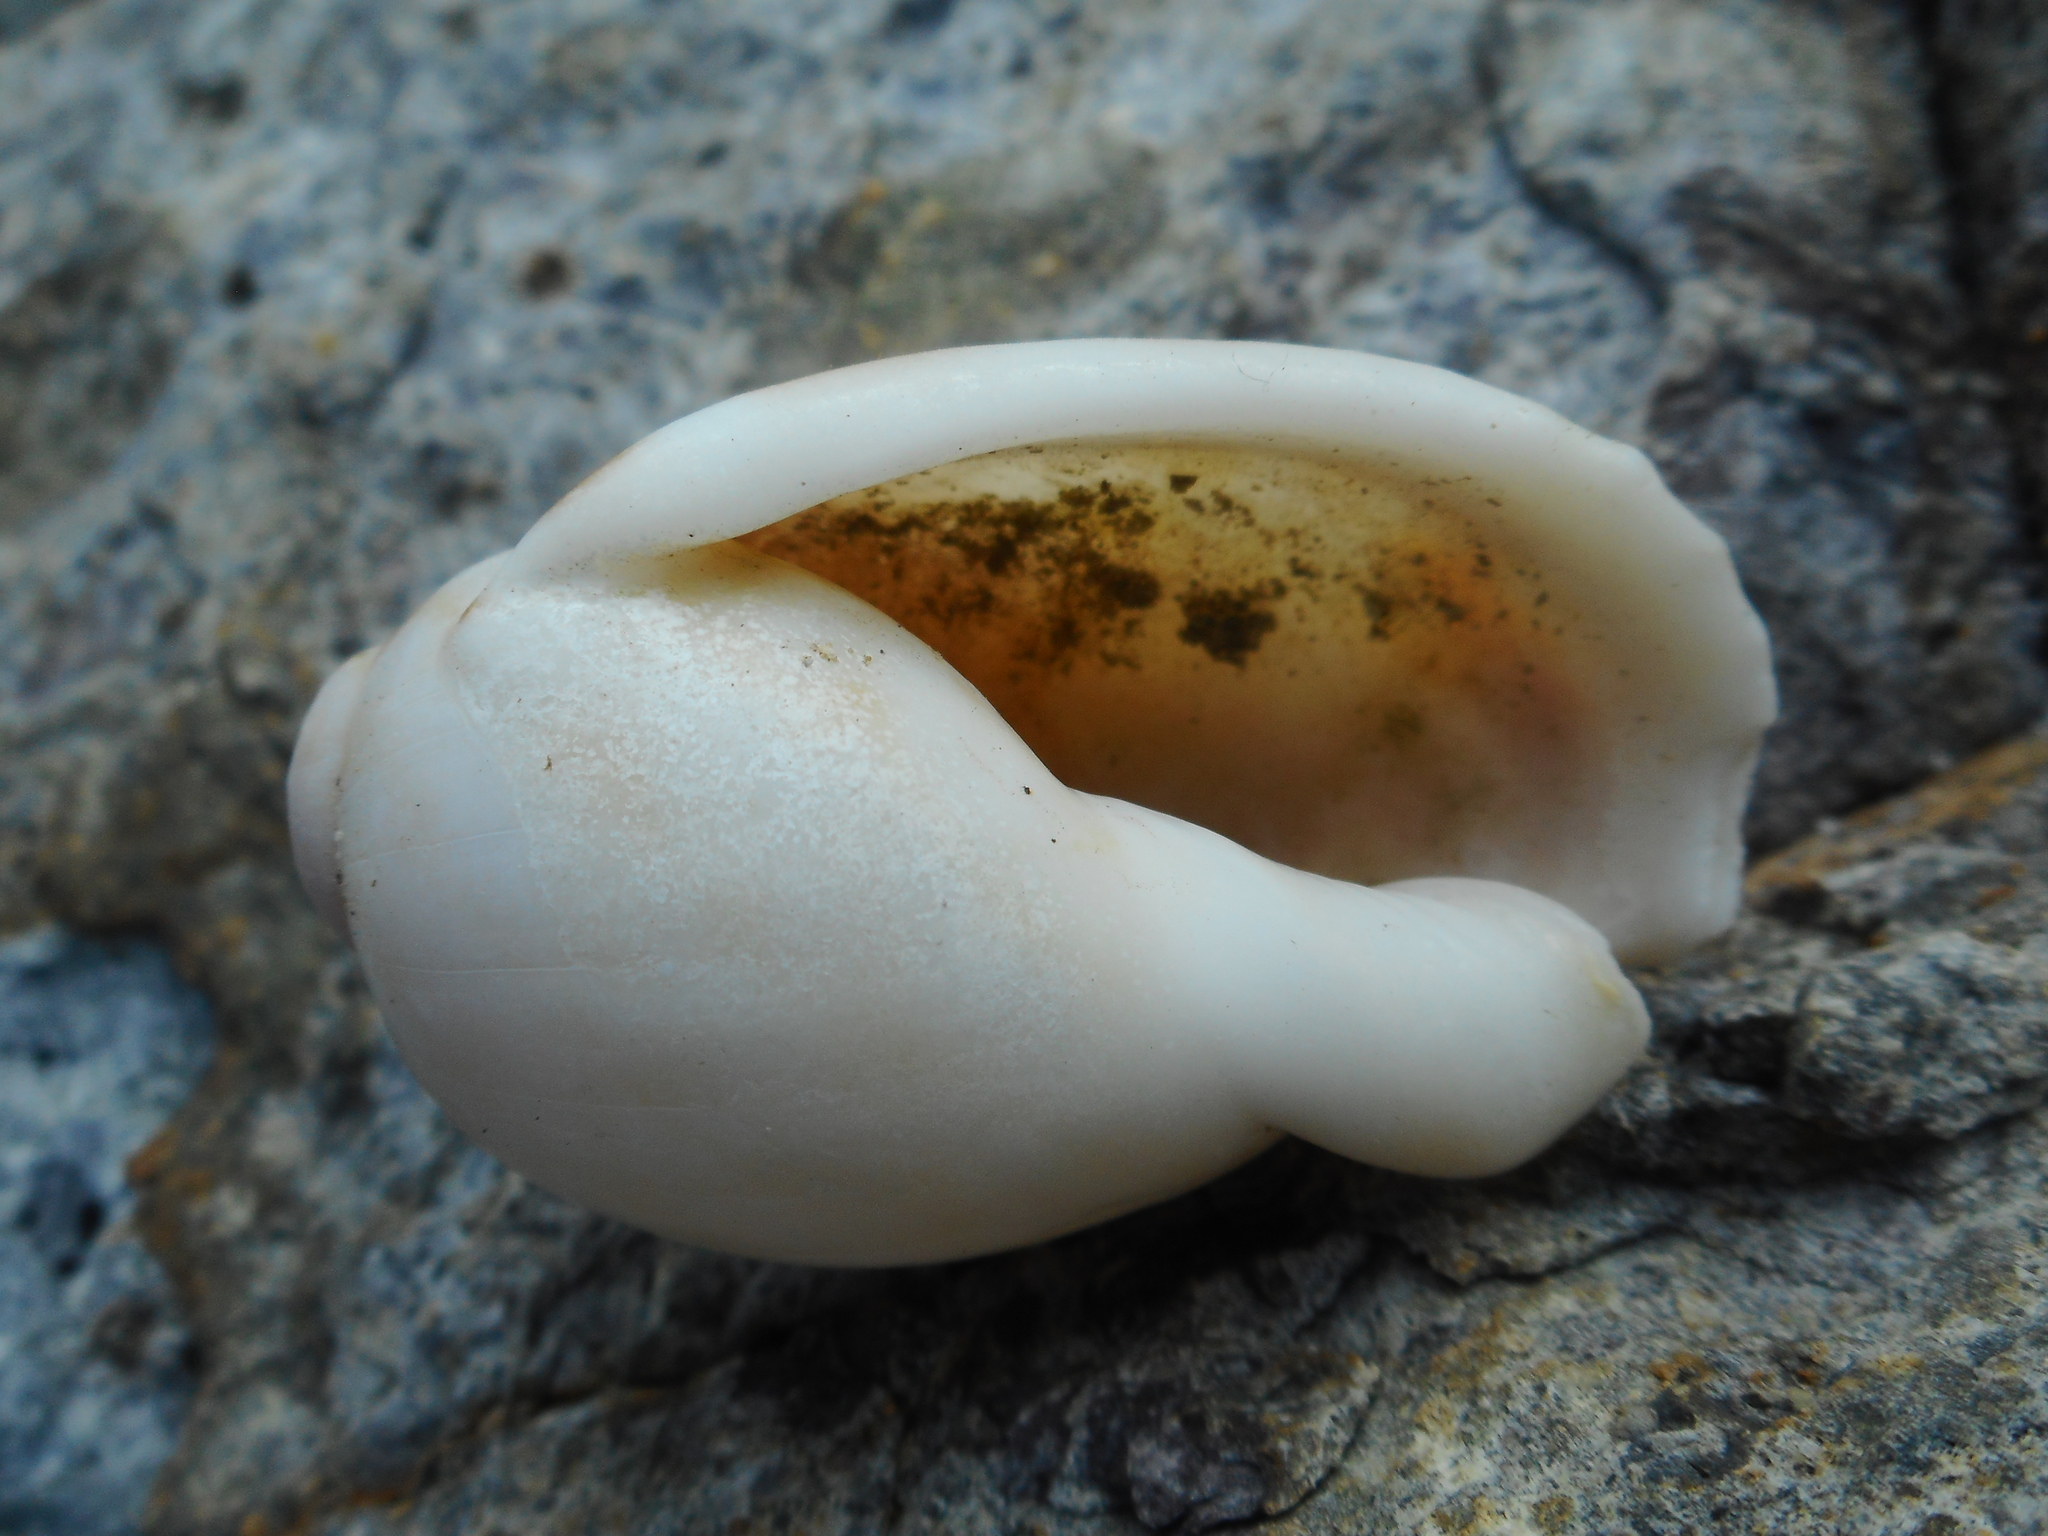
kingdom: Animalia
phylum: Mollusca
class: Gastropoda
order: Littorinimorpha
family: Cassidae
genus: Casmaria
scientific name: Casmaria ponderosa
